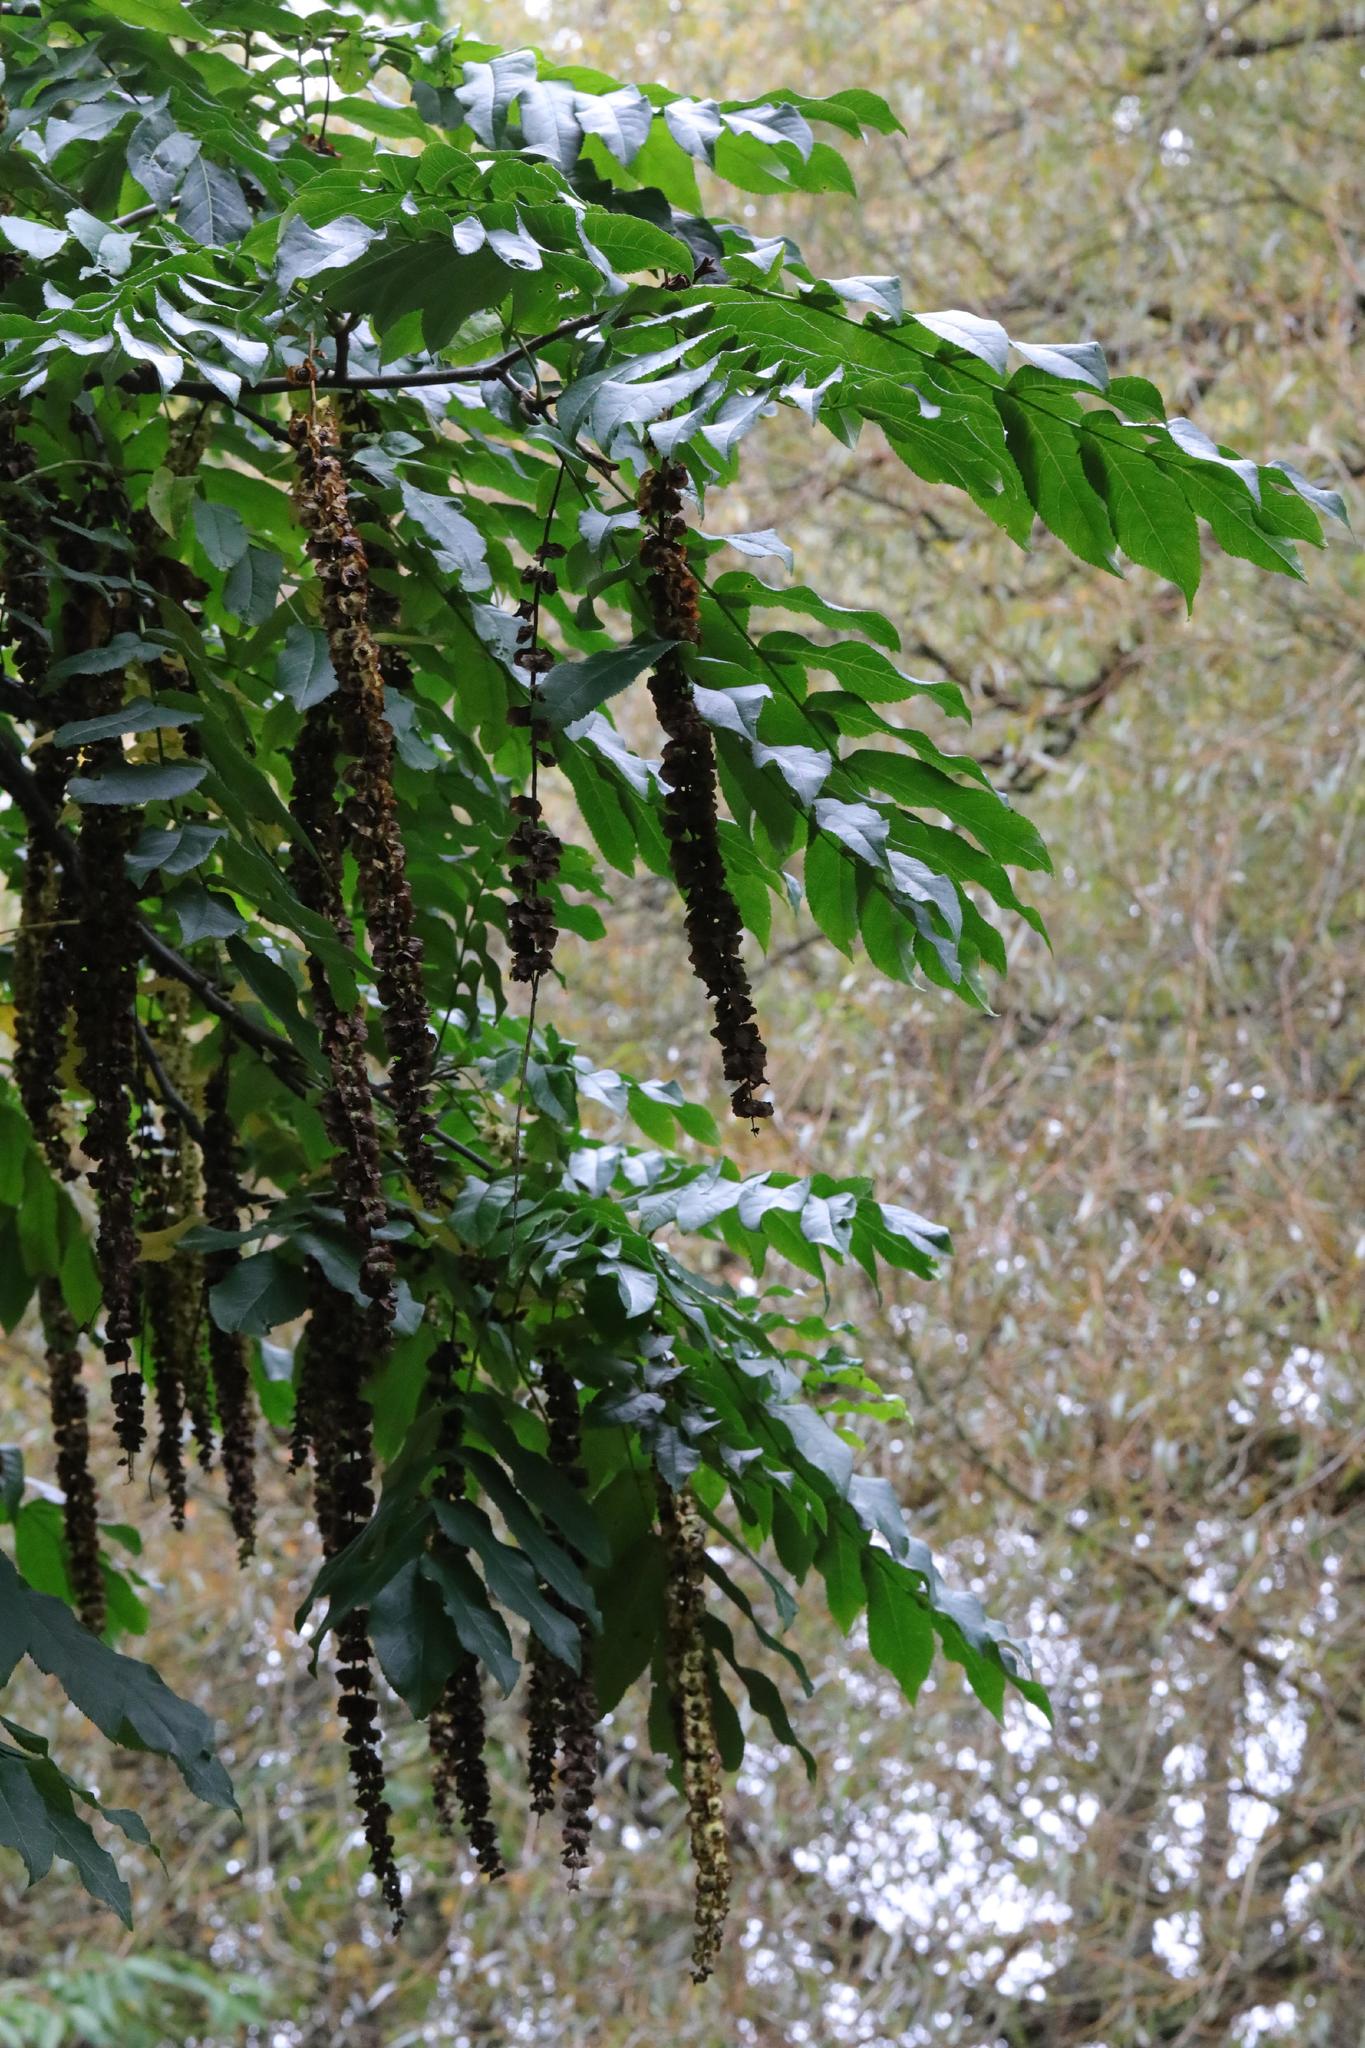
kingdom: Plantae
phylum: Tracheophyta
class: Magnoliopsida
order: Fagales
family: Juglandaceae
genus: Pterocarya
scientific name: Pterocarya fraxinifolia
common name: Caucasian wingnut
